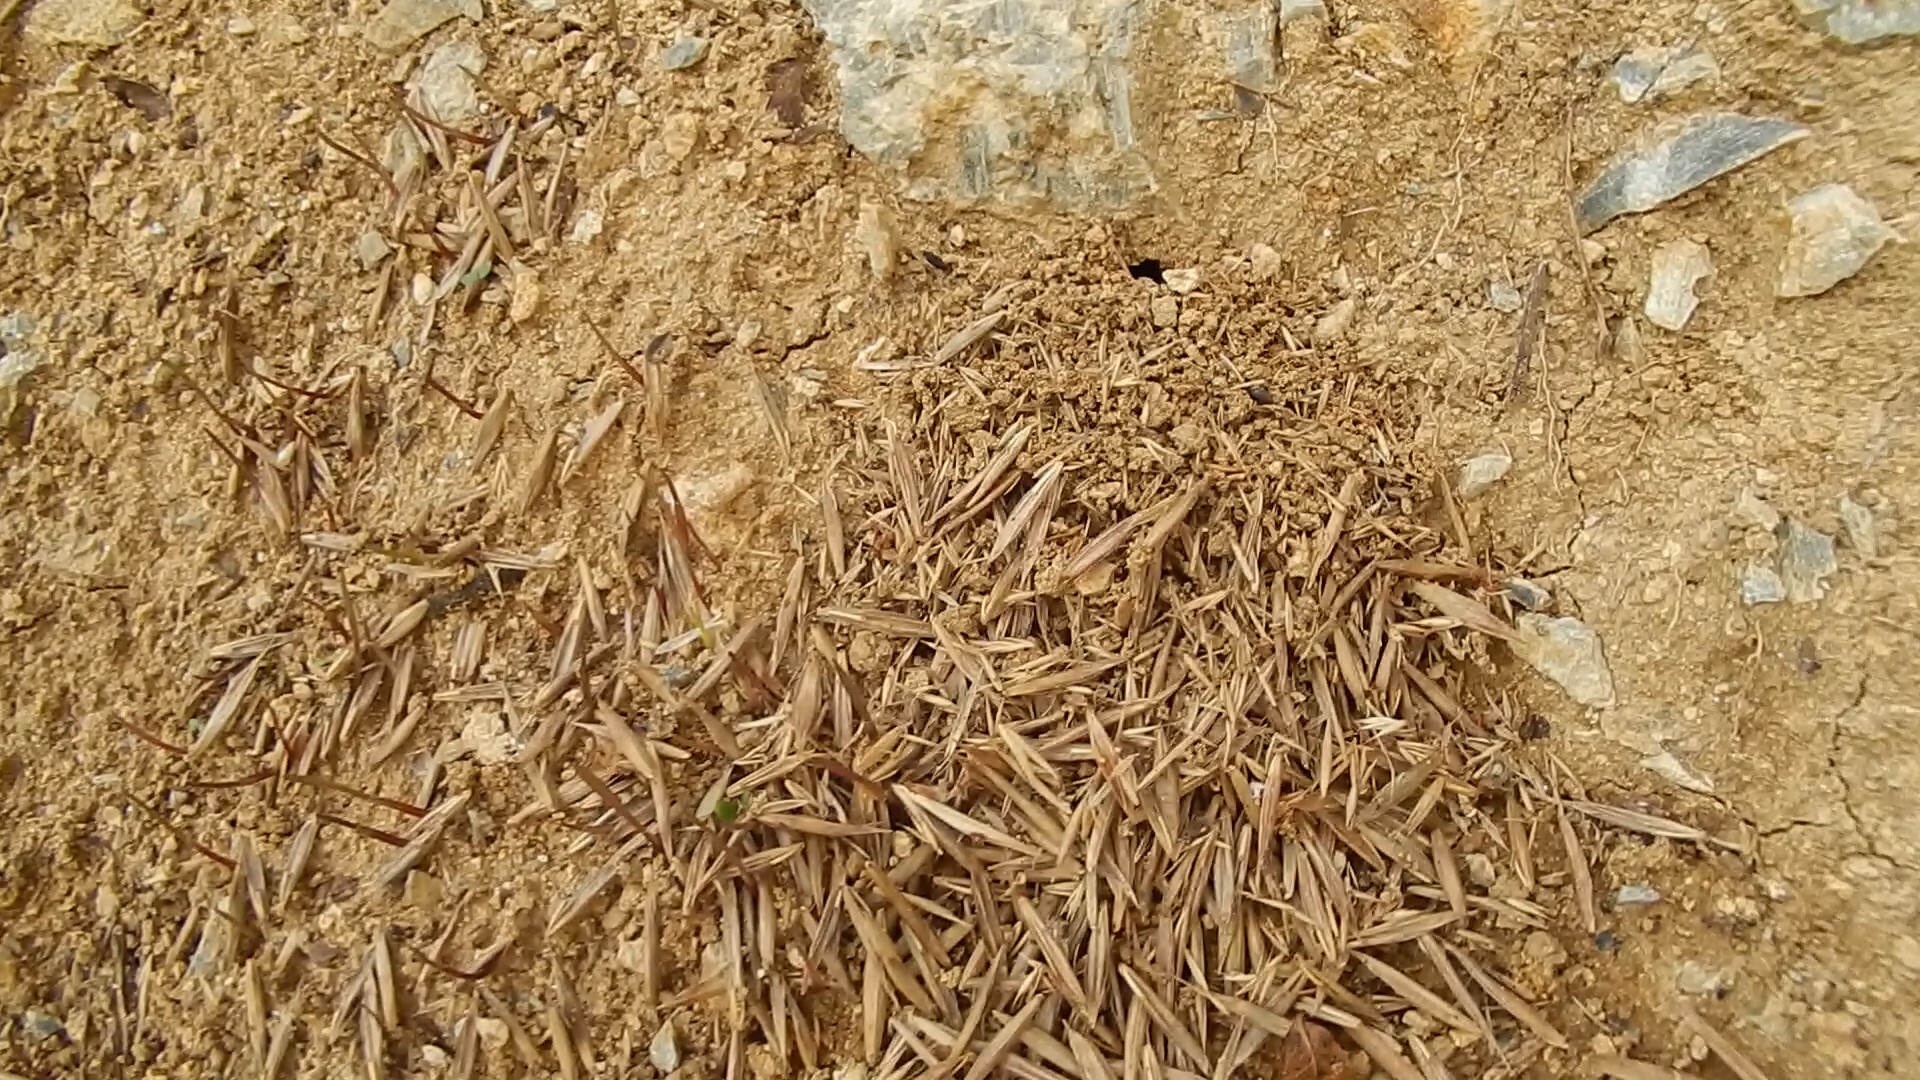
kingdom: Animalia
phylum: Arthropoda
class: Insecta
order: Hymenoptera
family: Formicidae
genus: Messor
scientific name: Messor structor
